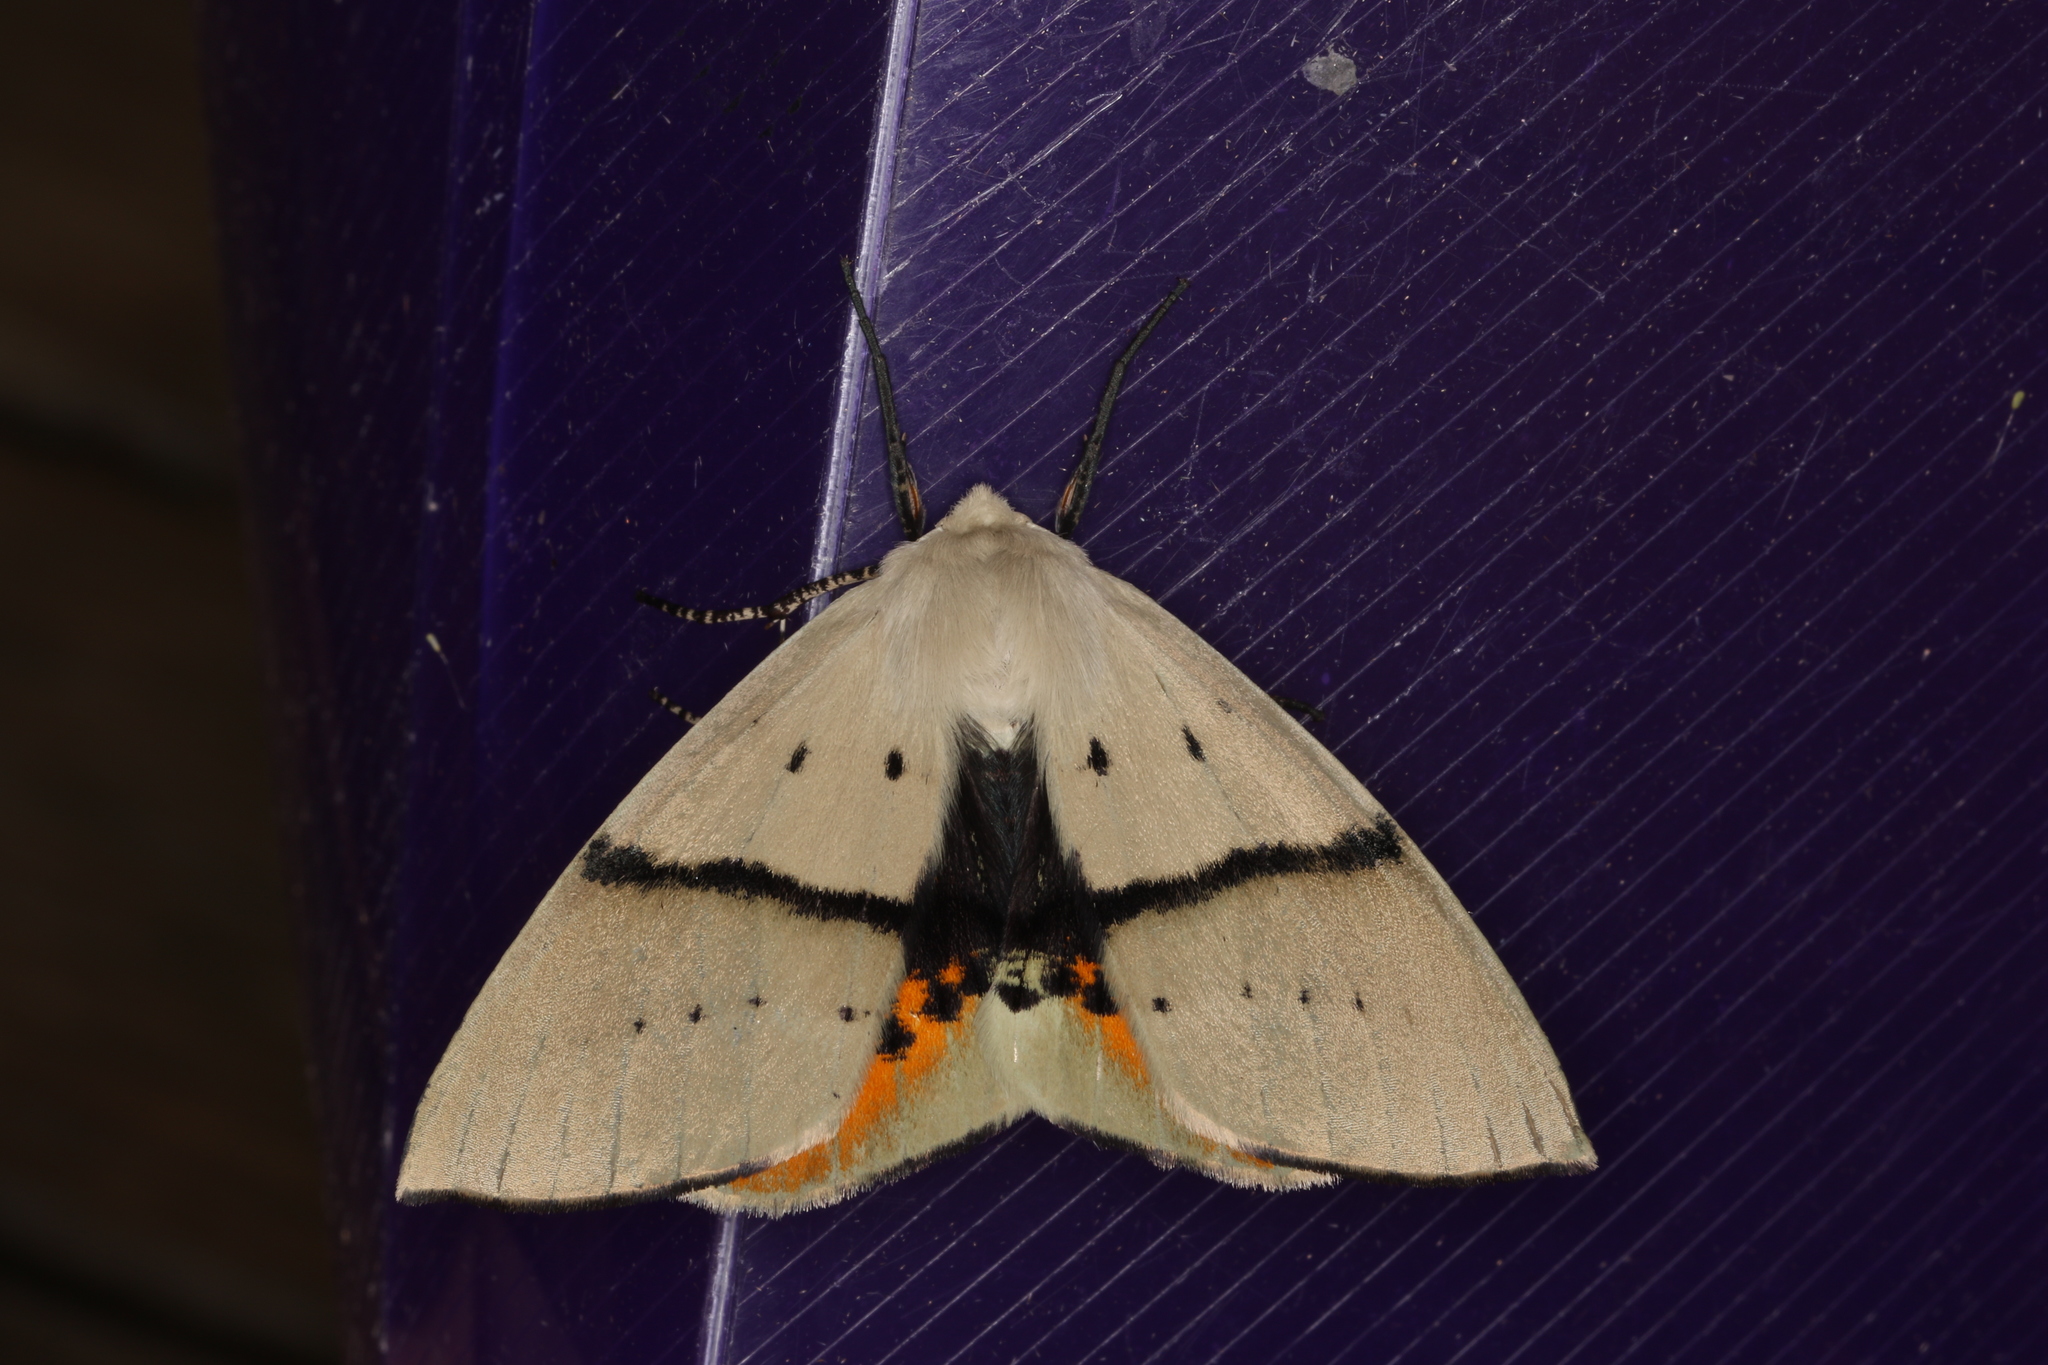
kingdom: Animalia
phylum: Arthropoda
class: Insecta
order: Lepidoptera
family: Geometridae
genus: Gastrophora
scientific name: Gastrophora henricaria
